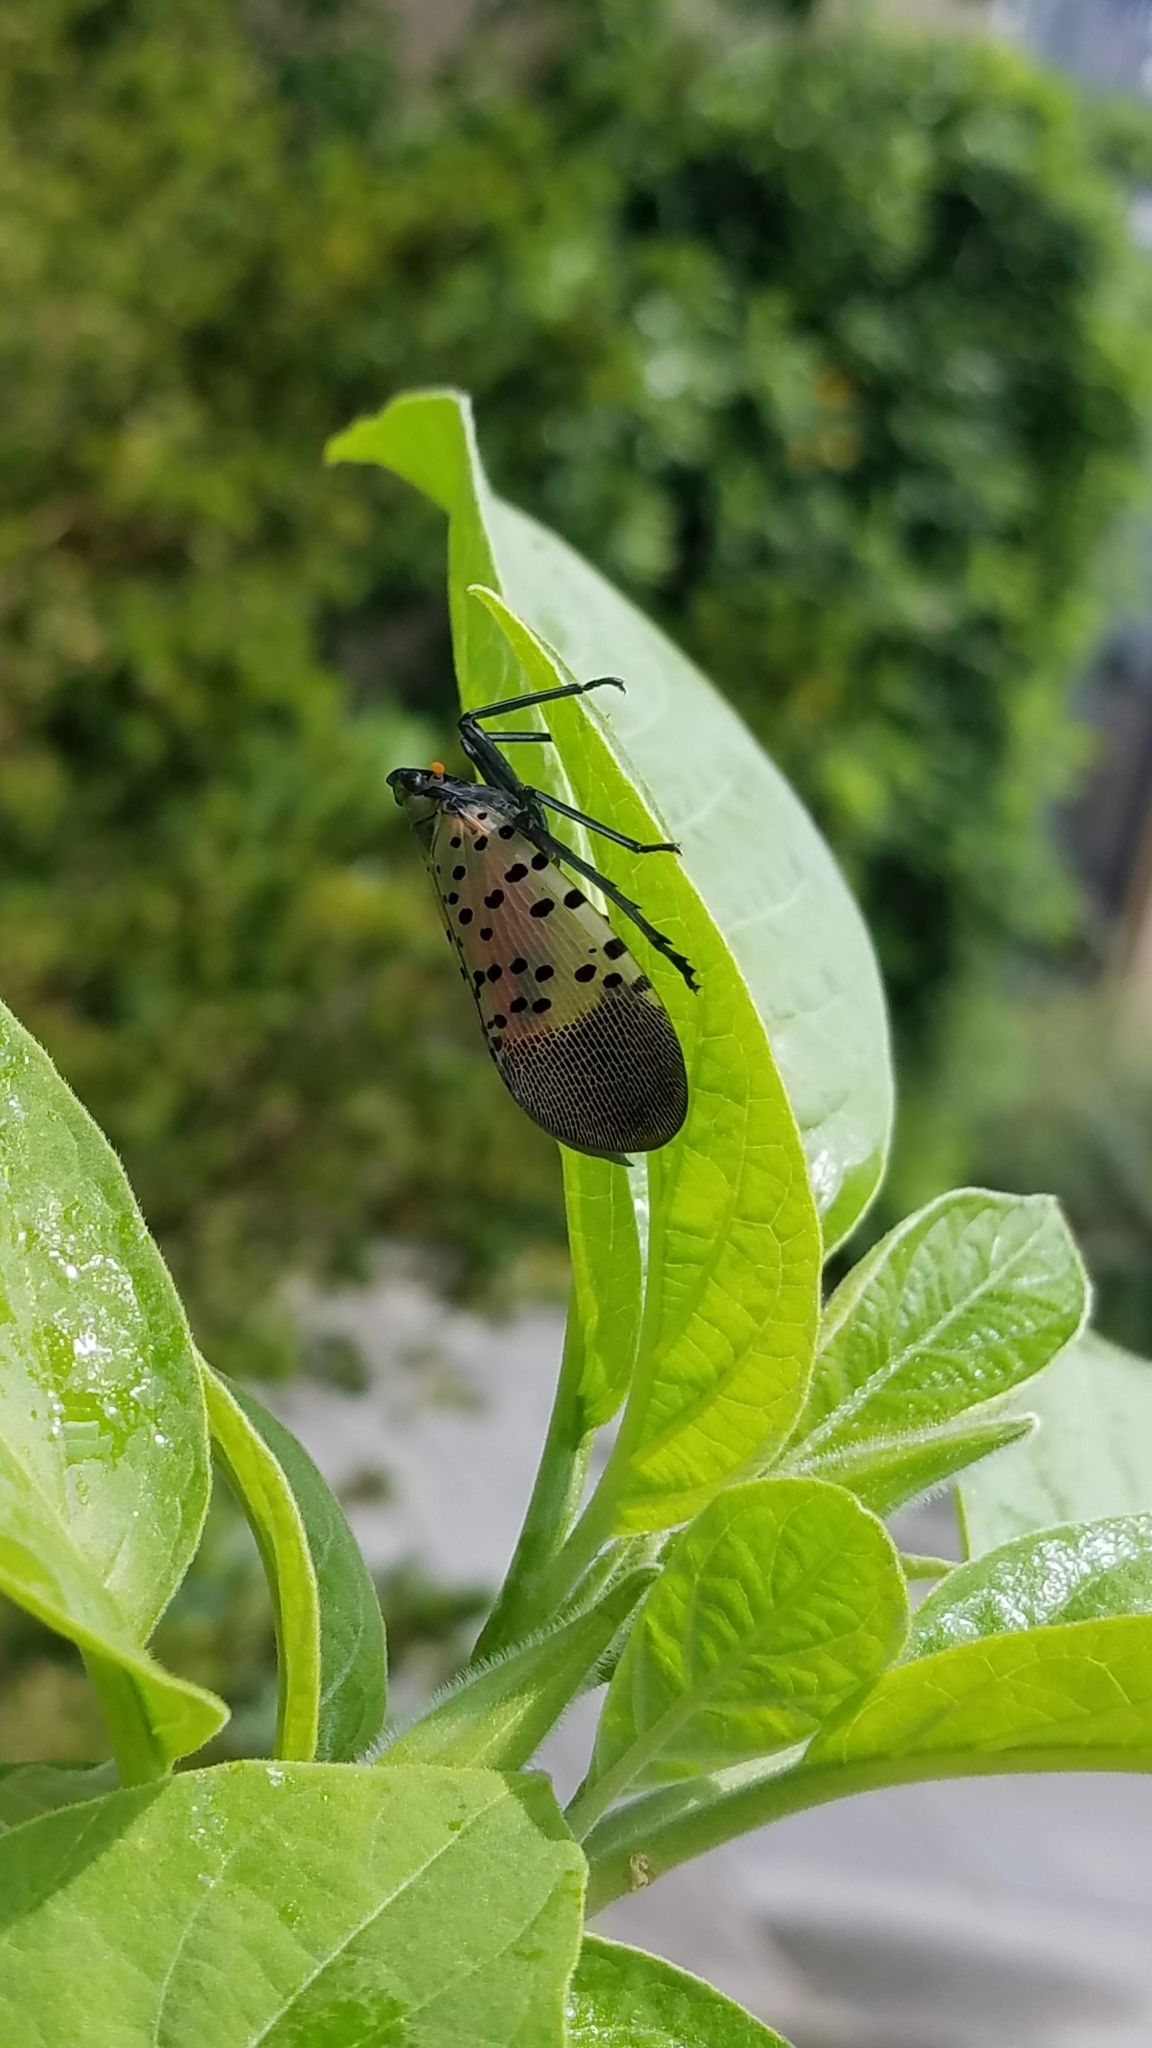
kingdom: Animalia
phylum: Arthropoda
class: Insecta
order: Hemiptera
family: Fulgoridae
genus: Lycorma
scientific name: Lycorma delicatula
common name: Spotted lanternfly
